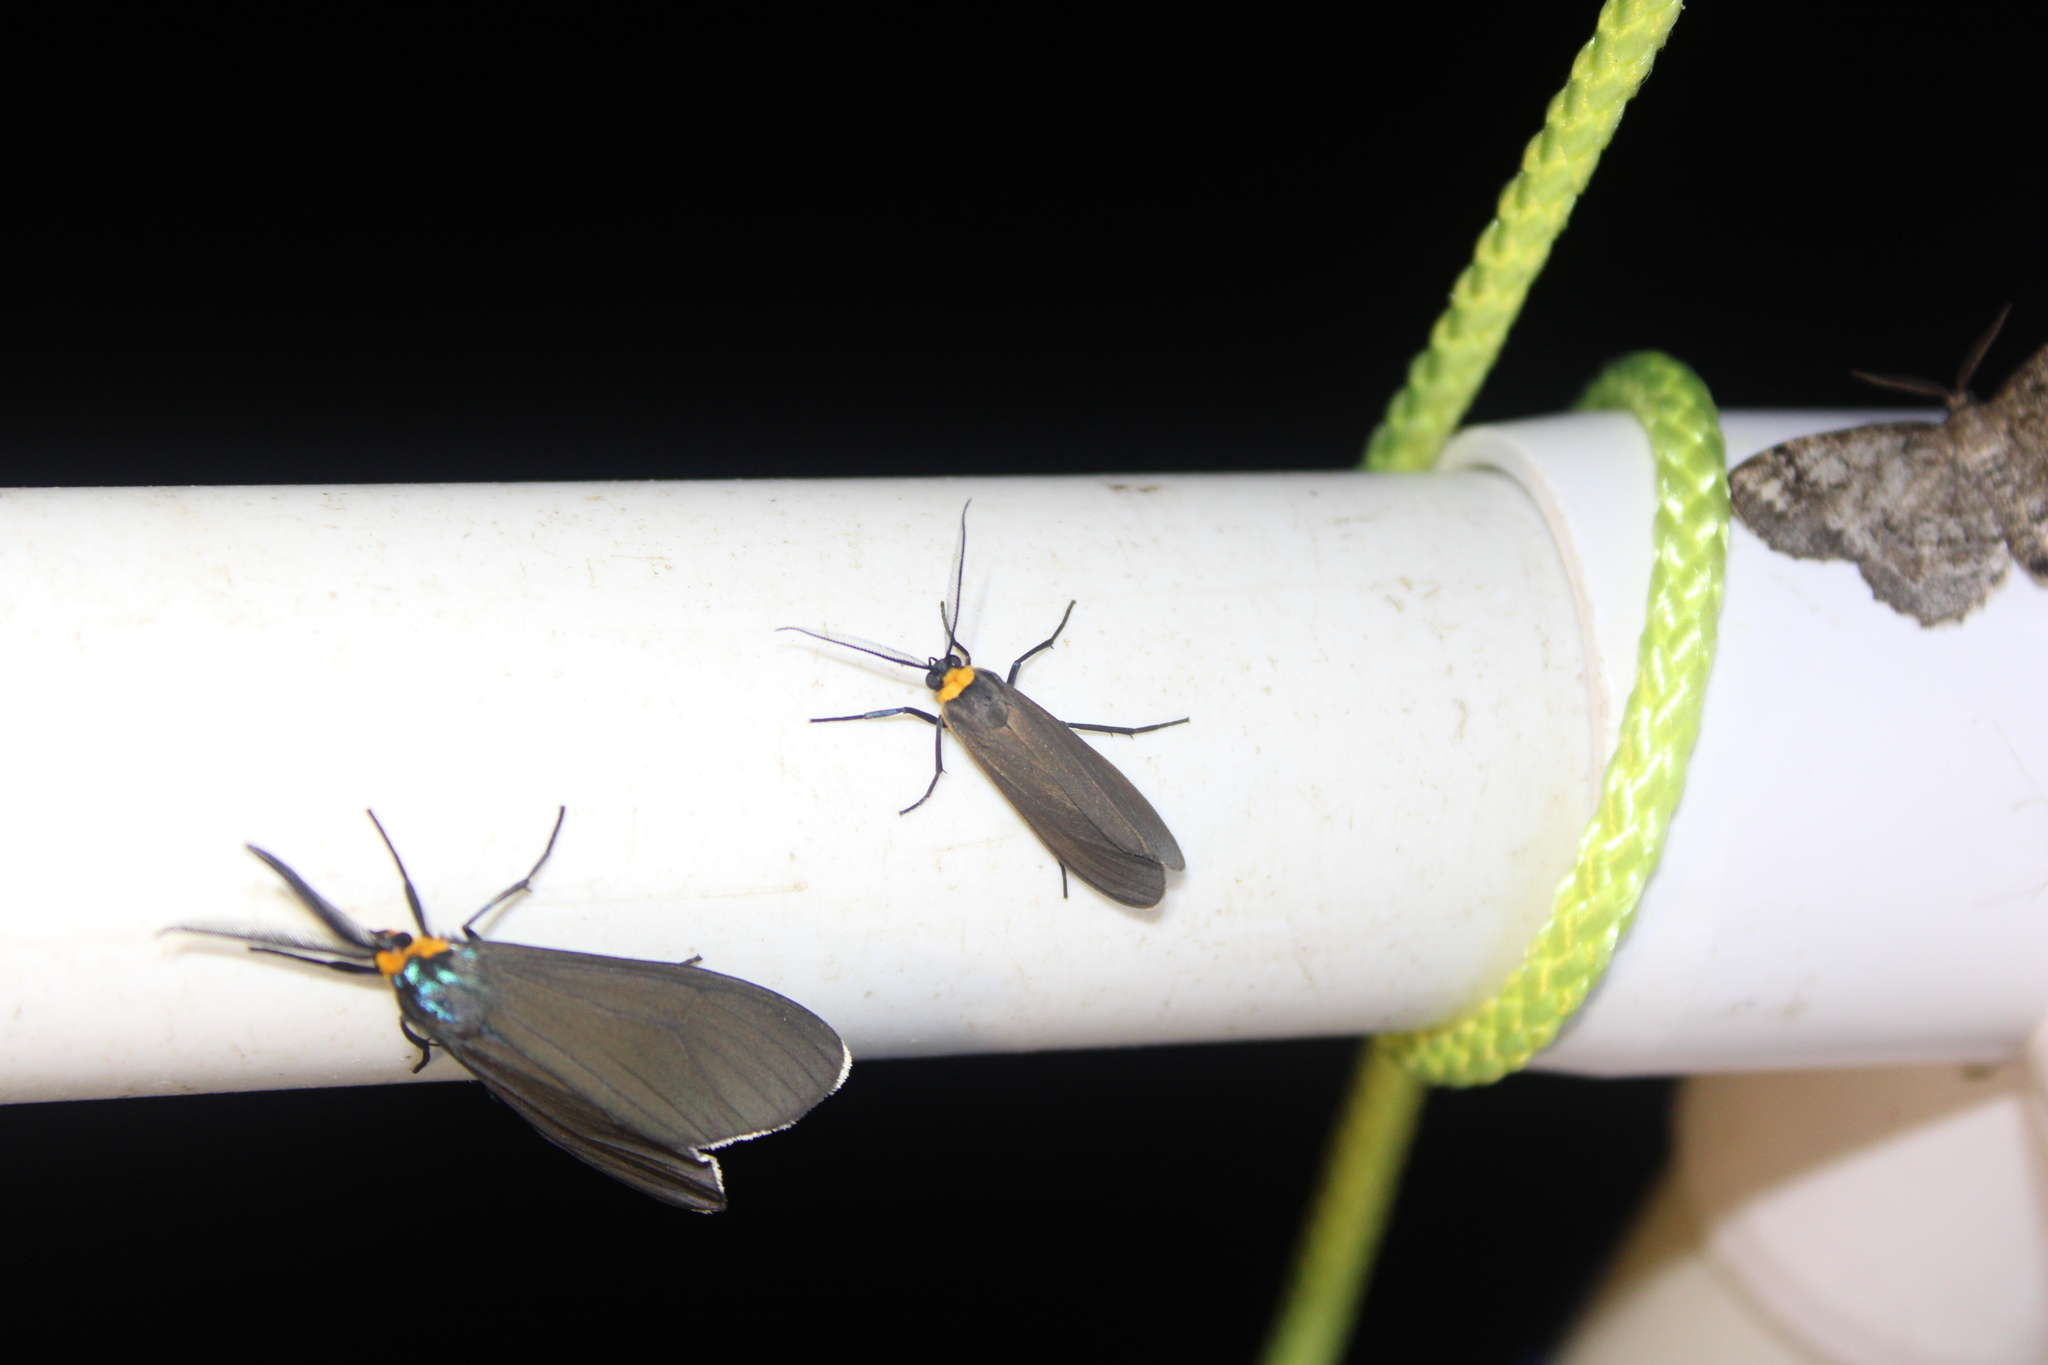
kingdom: Animalia
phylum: Arthropoda
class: Insecta
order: Lepidoptera
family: Erebidae
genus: Cisseps
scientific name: Cisseps fulvicollis
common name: Yellow-collared scape moth
